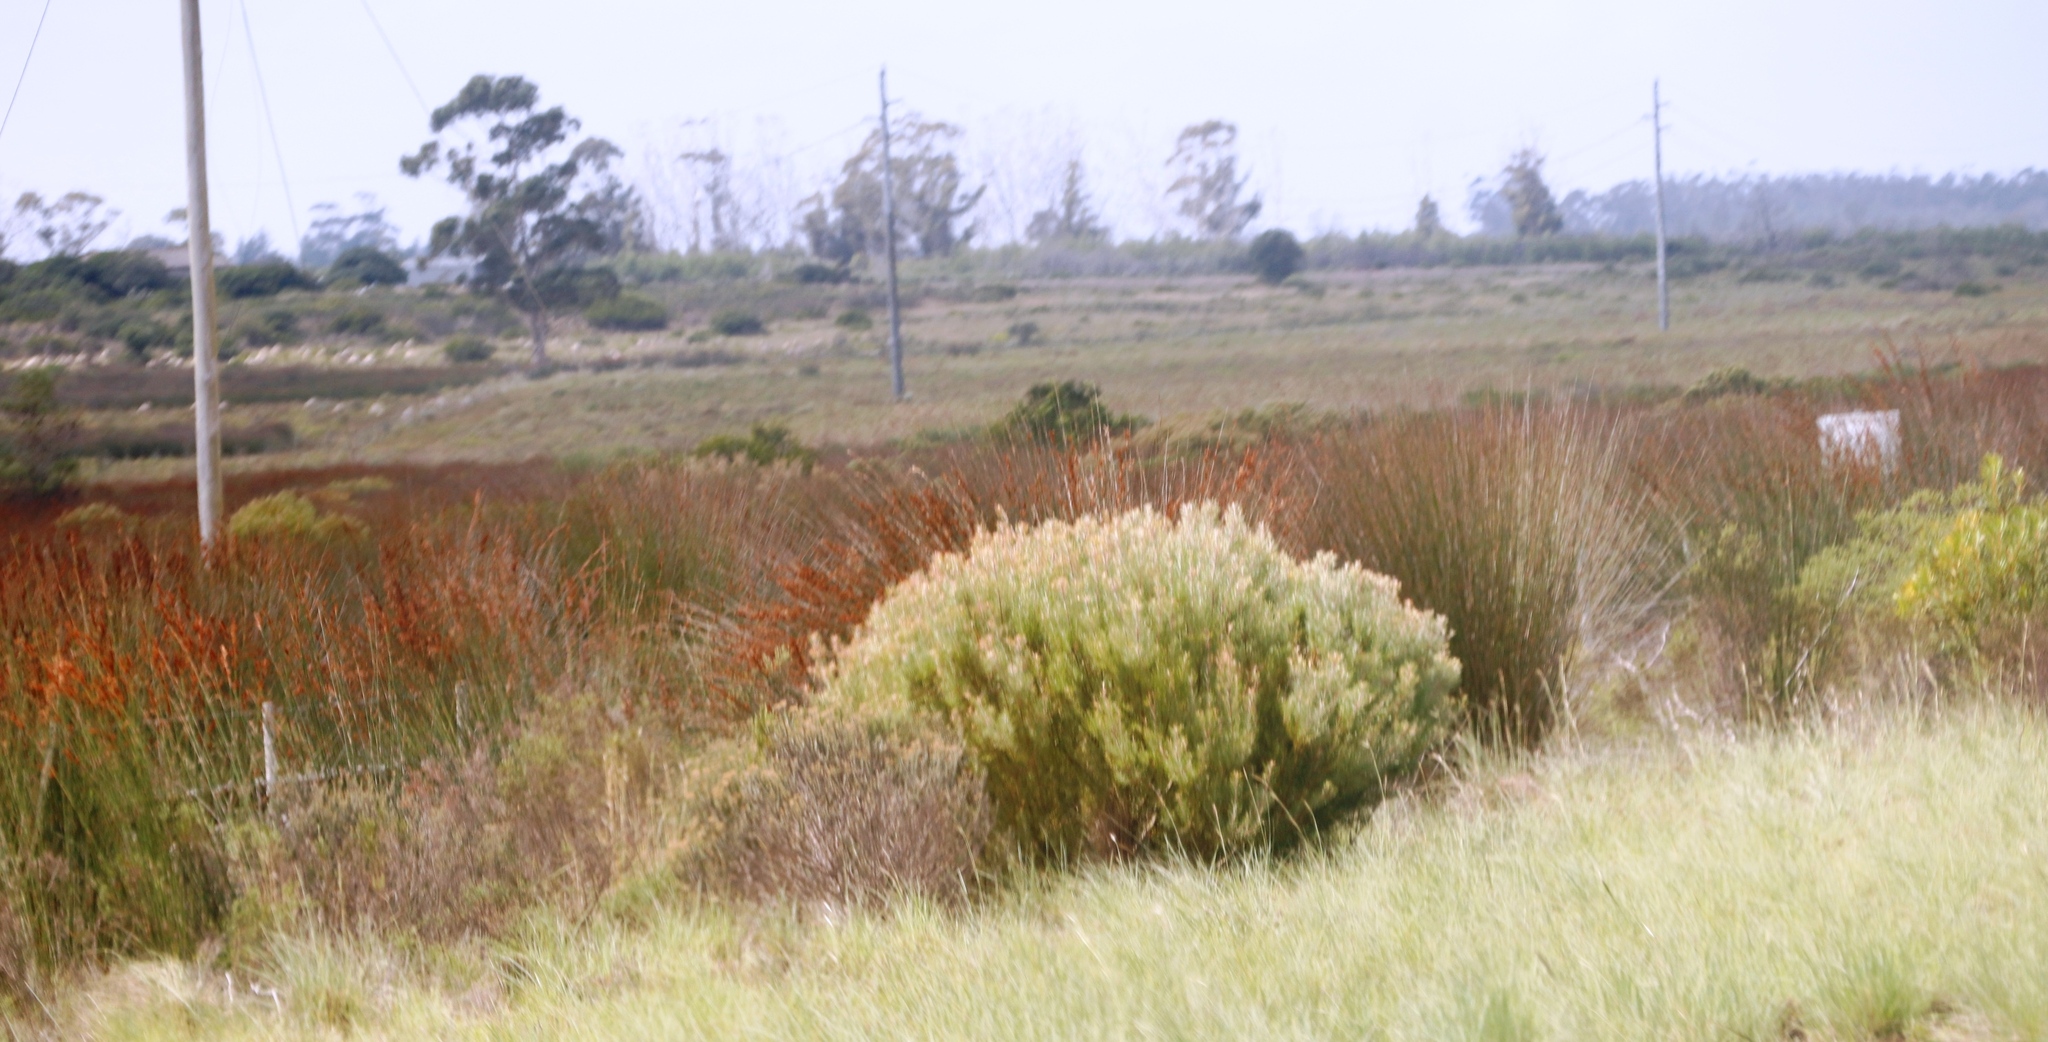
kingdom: Plantae
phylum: Tracheophyta
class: Liliopsida
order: Poales
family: Restionaceae
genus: Thamnochortus
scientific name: Thamnochortus insignis
